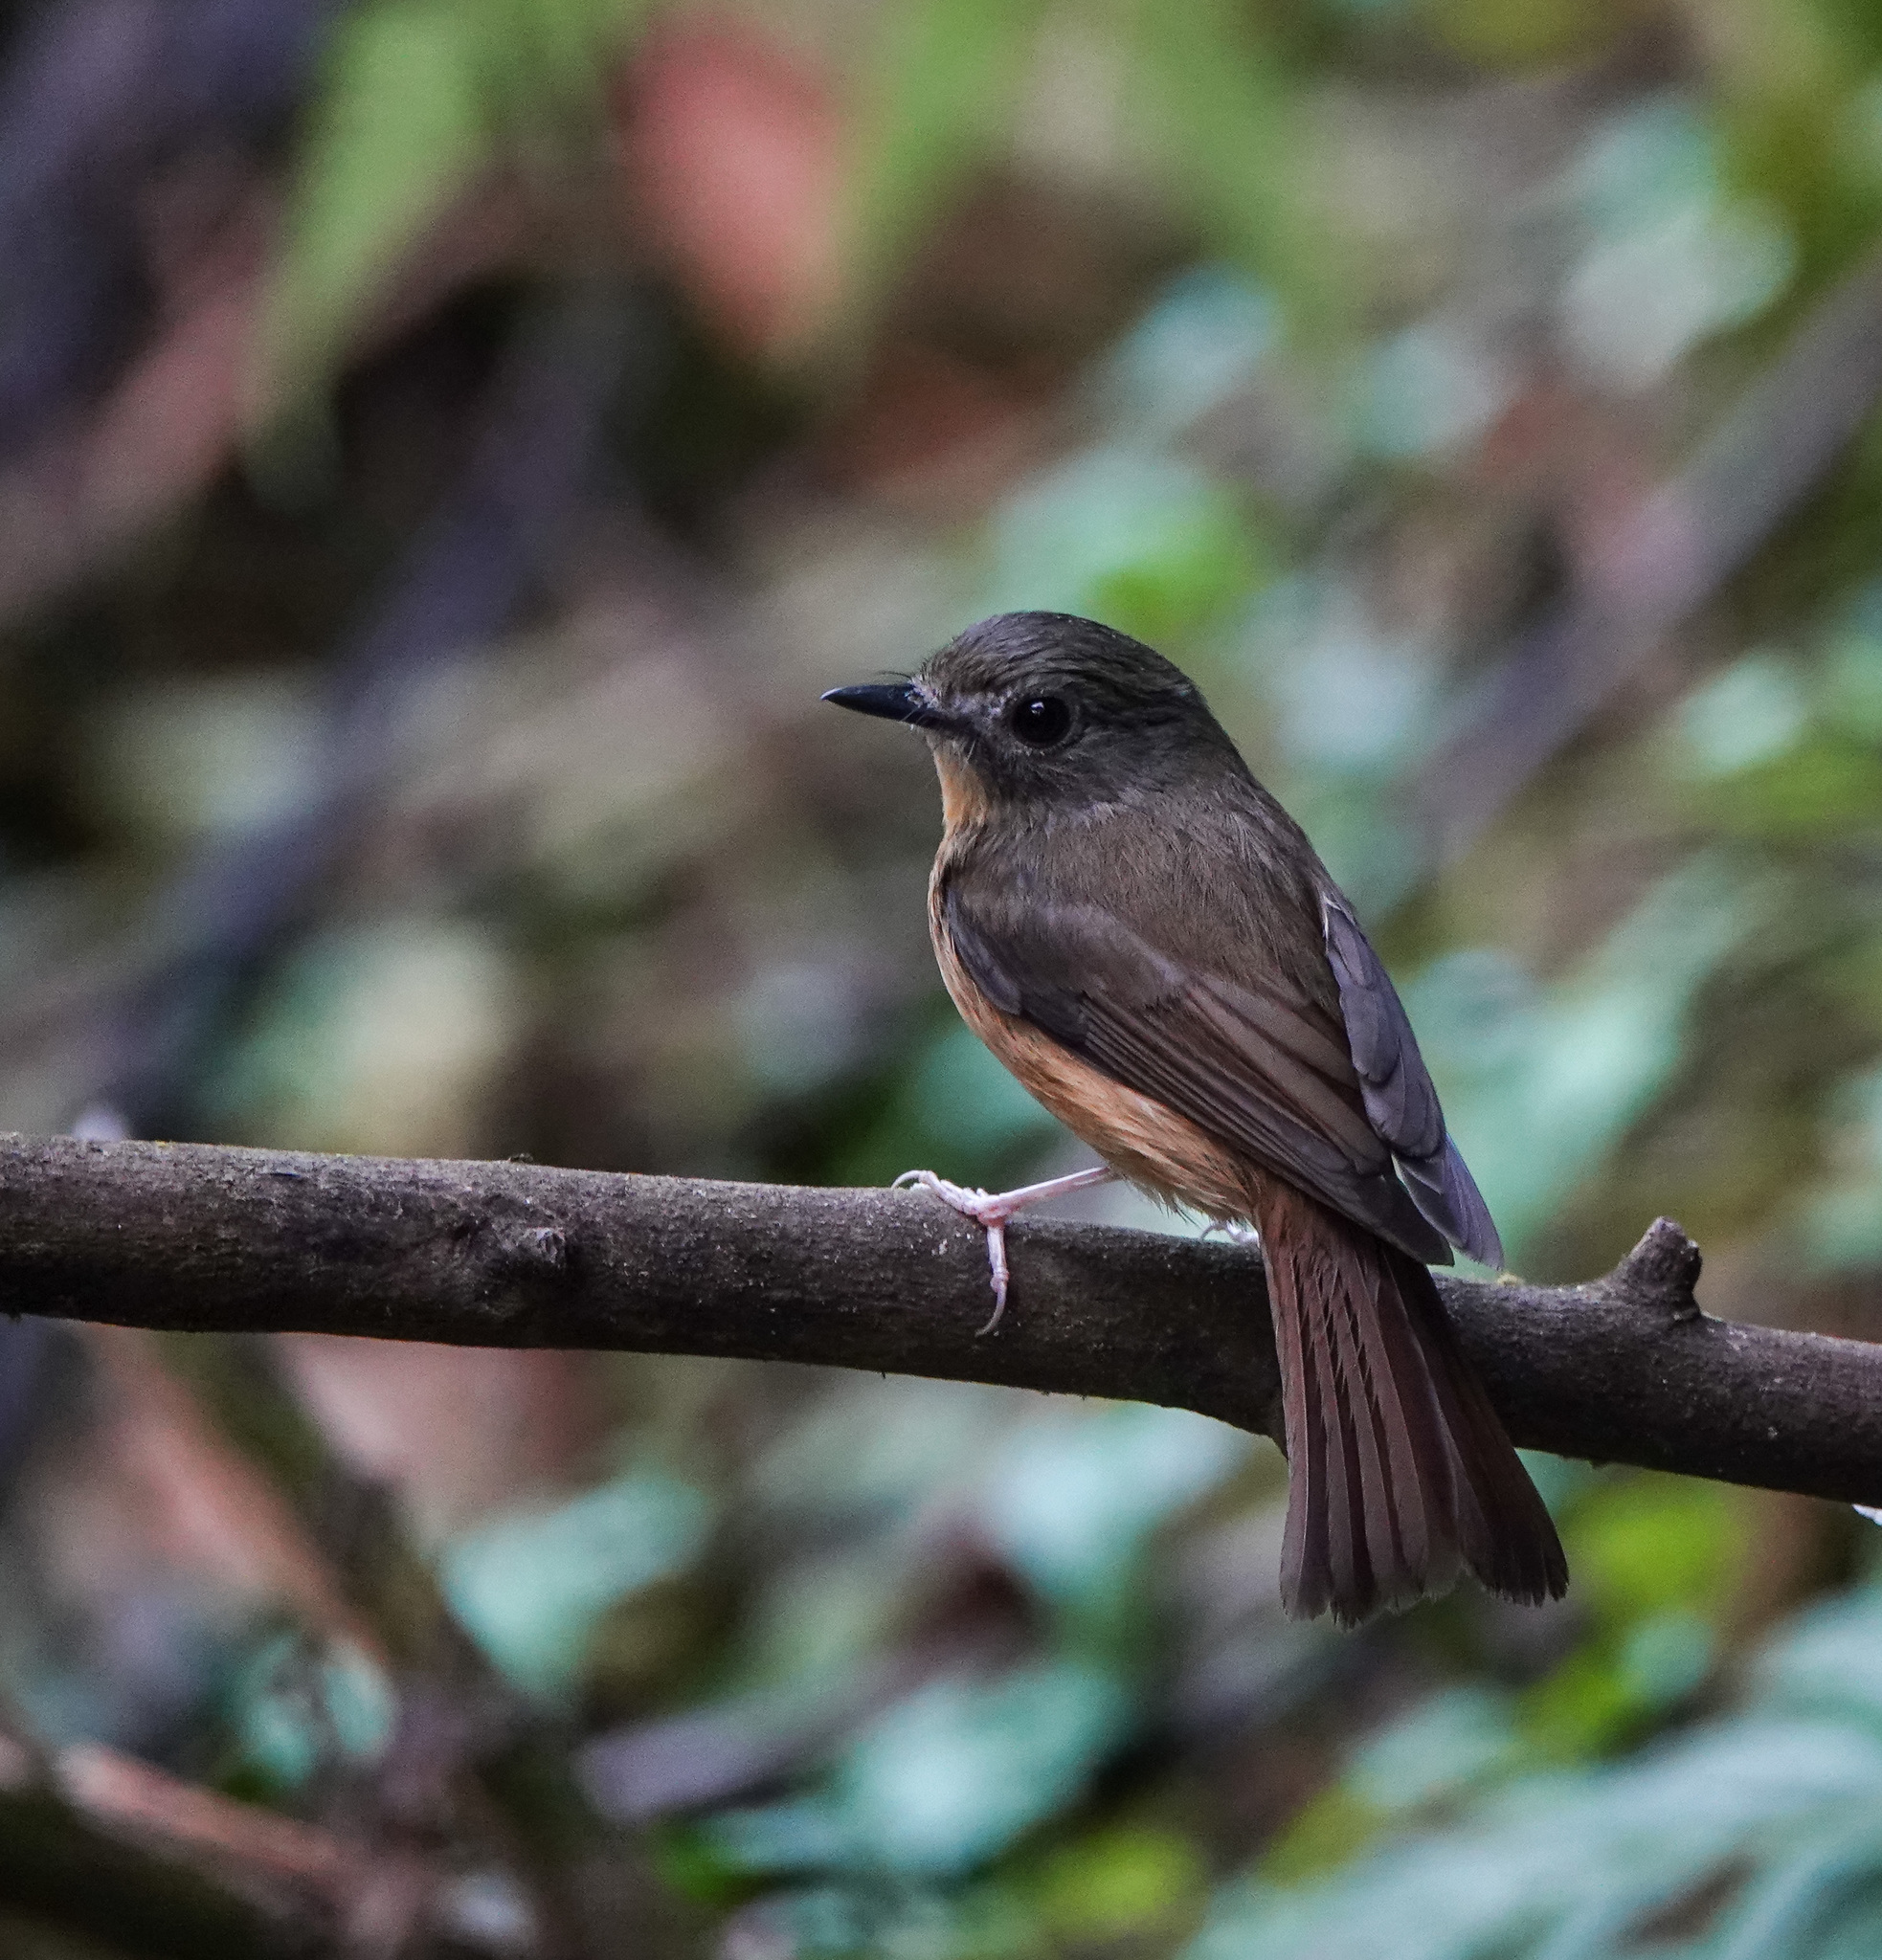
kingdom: Animalia
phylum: Chordata
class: Aves
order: Passeriformes
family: Muscicapidae
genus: Cyornis
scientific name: Cyornis poliogenys
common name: Pale-chinned blue flycatcher
